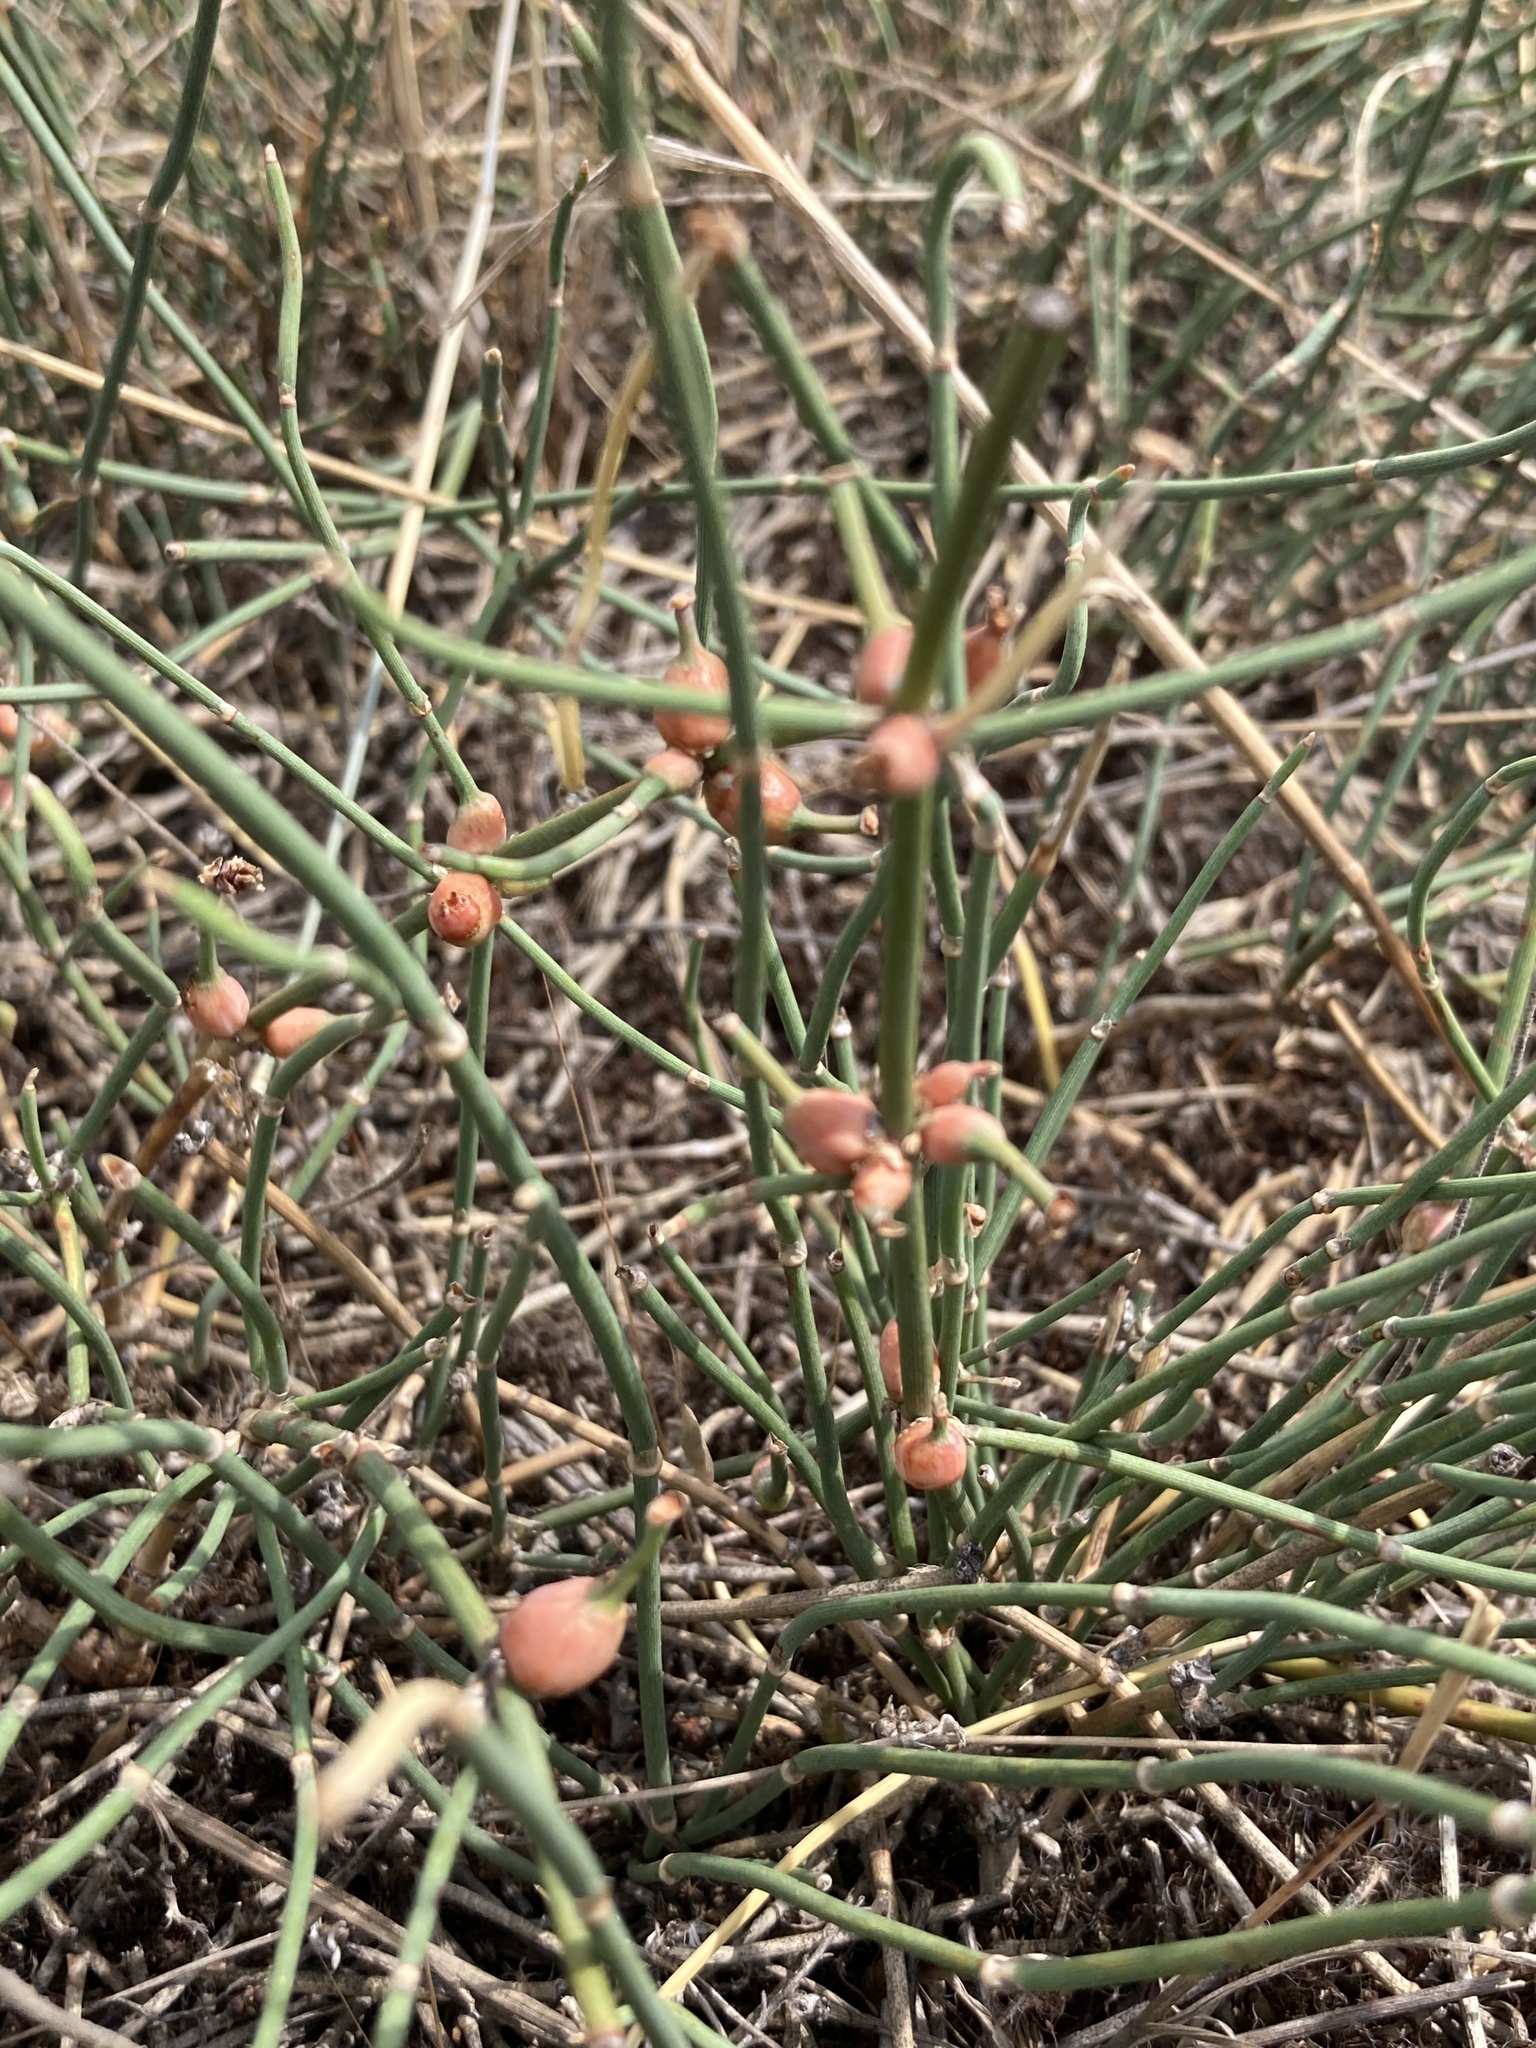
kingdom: Plantae
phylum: Tracheophyta
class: Gnetopsida
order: Ephedrales
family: Ephedraceae
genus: Ephedra
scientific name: Ephedra distachya
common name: Sea grape
